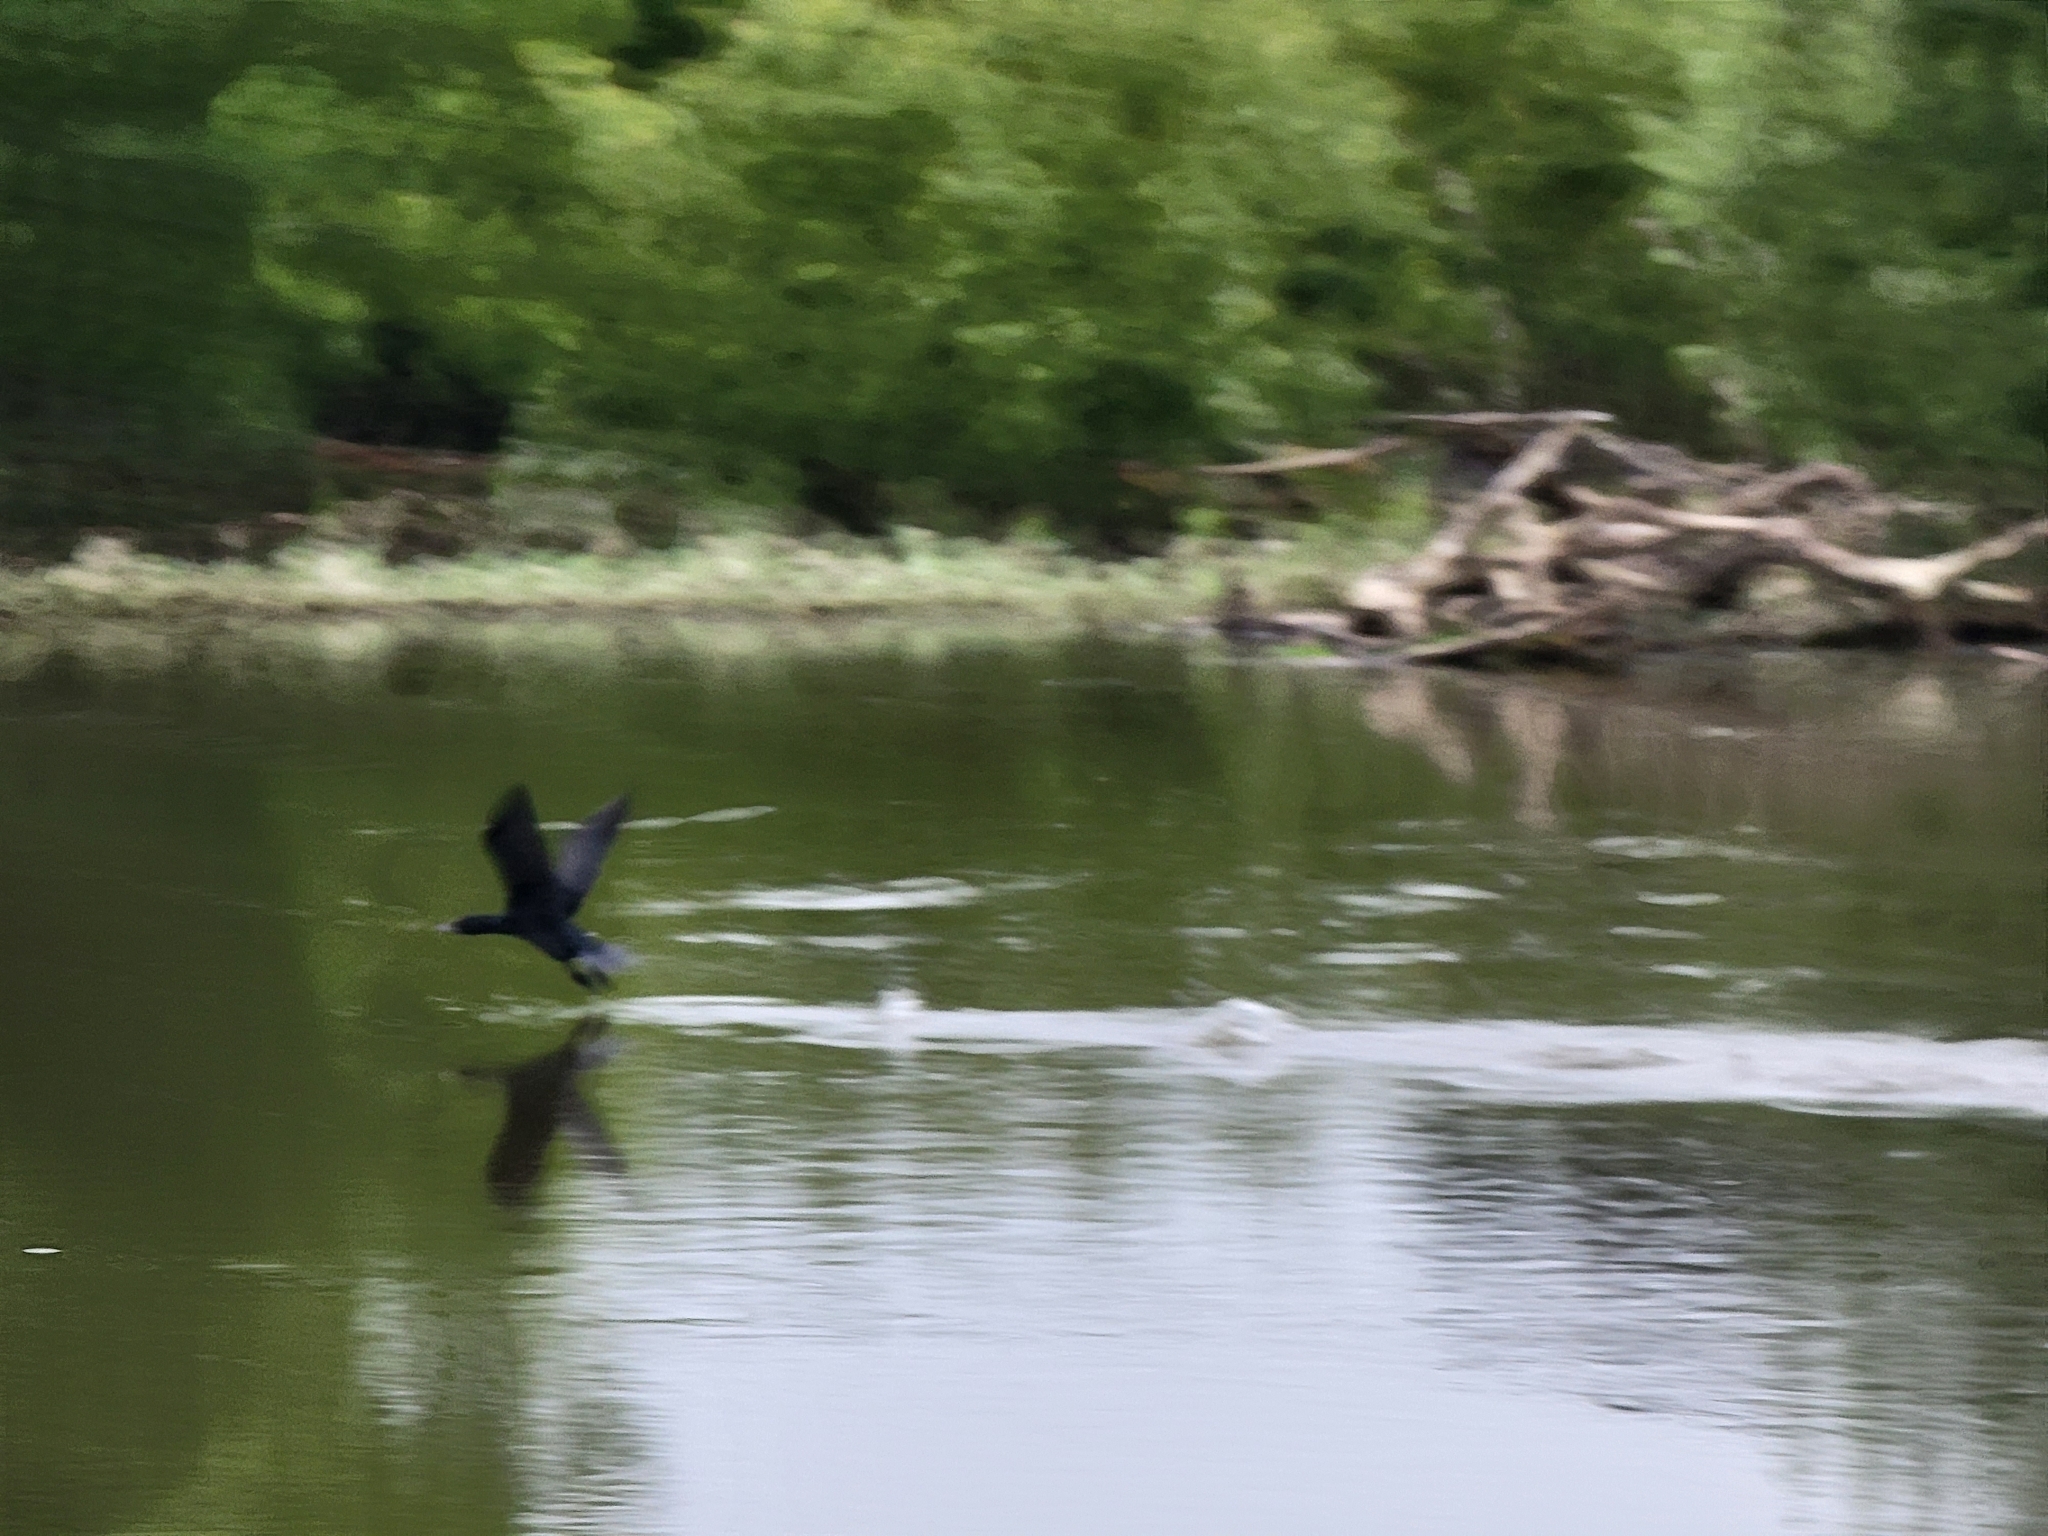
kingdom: Animalia
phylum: Chordata
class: Aves
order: Suliformes
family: Phalacrocoracidae
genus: Phalacrocorax
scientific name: Phalacrocorax sulcirostris
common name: Little black cormorant
